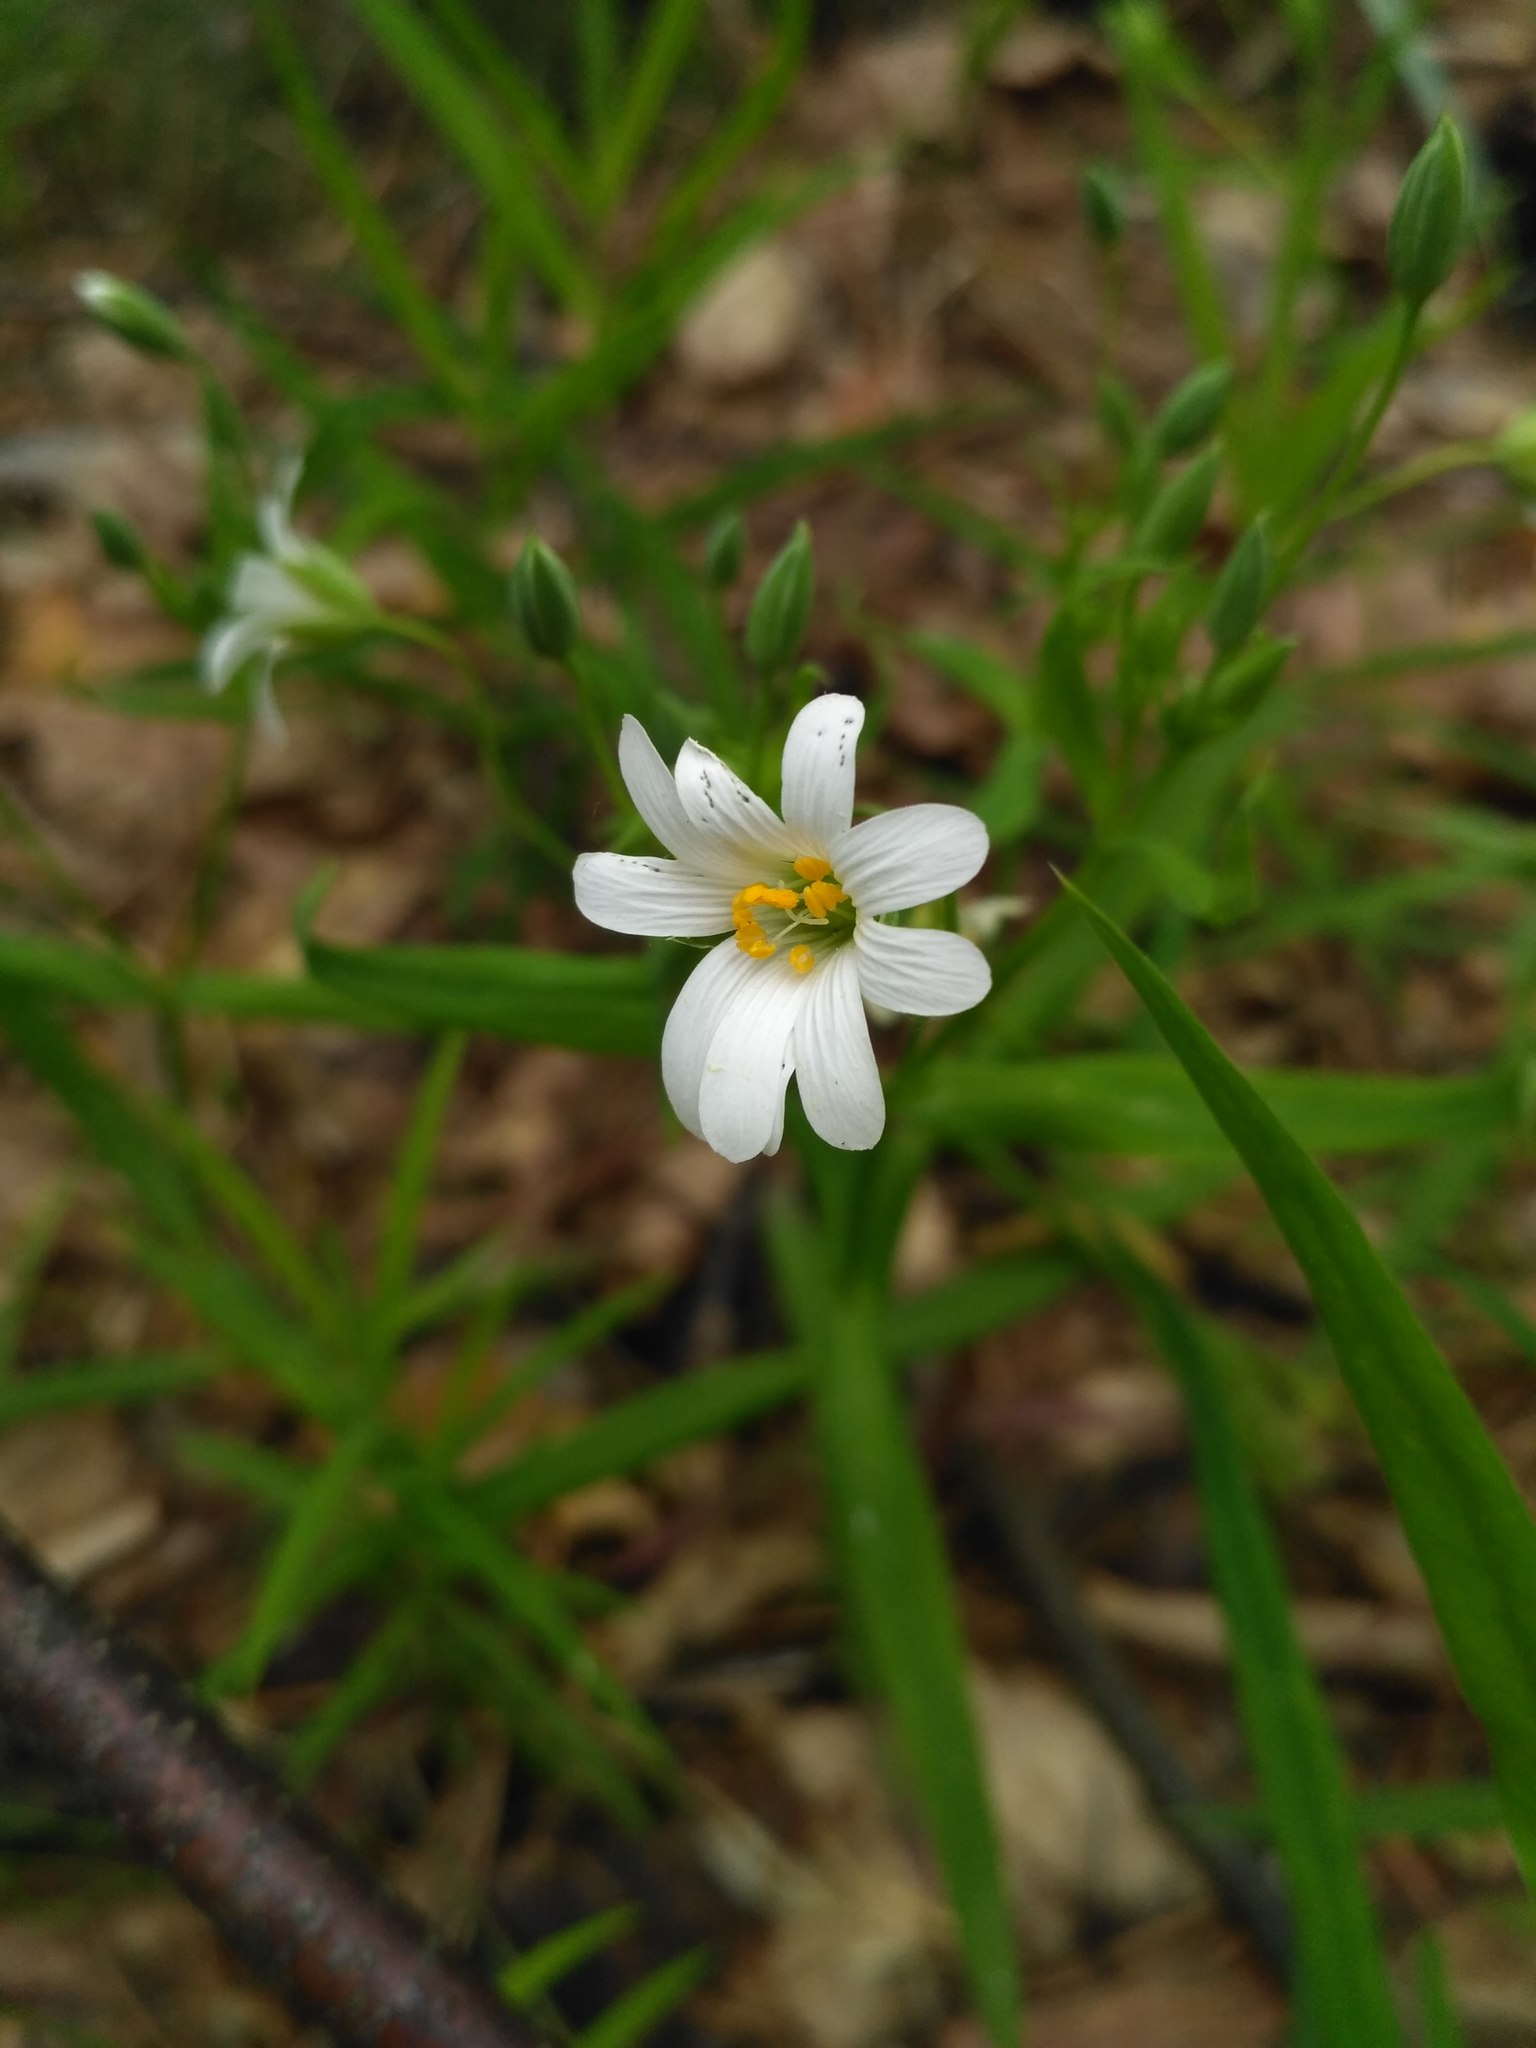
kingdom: Plantae
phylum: Tracheophyta
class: Magnoliopsida
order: Caryophyllales
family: Caryophyllaceae
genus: Rabelera
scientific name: Rabelera holostea
